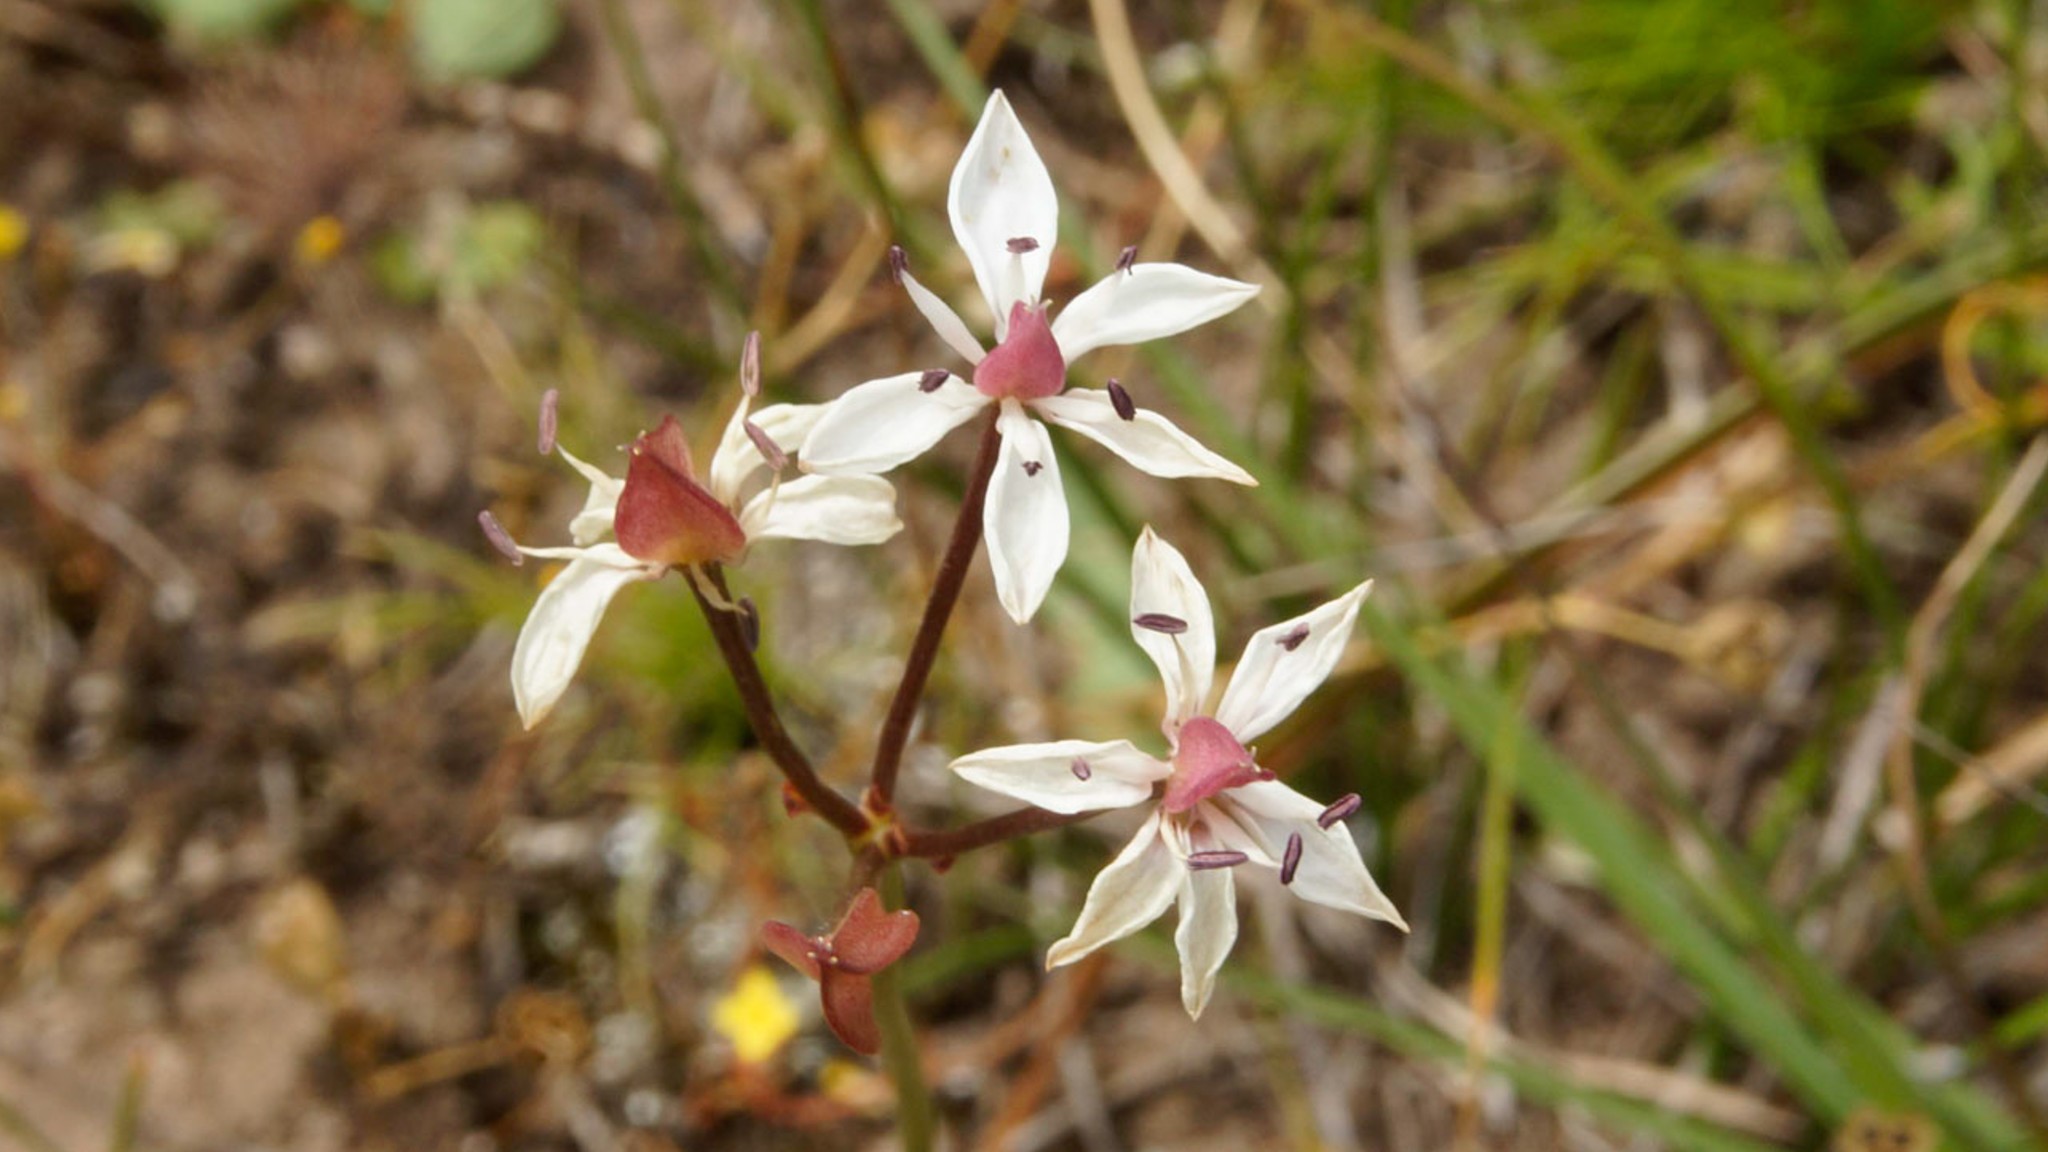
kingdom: Plantae
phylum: Tracheophyta
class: Liliopsida
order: Liliales
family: Colchicaceae
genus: Burchardia
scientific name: Burchardia umbellata
